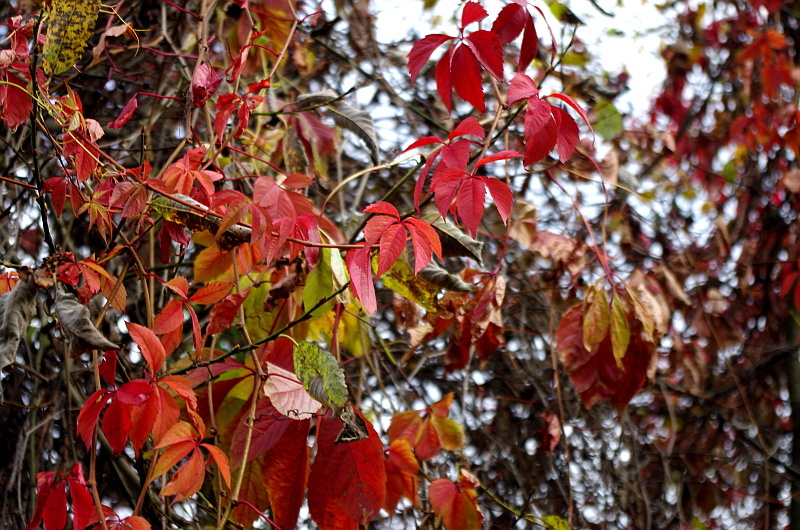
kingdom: Plantae
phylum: Tracheophyta
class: Magnoliopsida
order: Vitales
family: Vitaceae
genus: Parthenocissus
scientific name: Parthenocissus inserta
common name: False virginia-creeper
